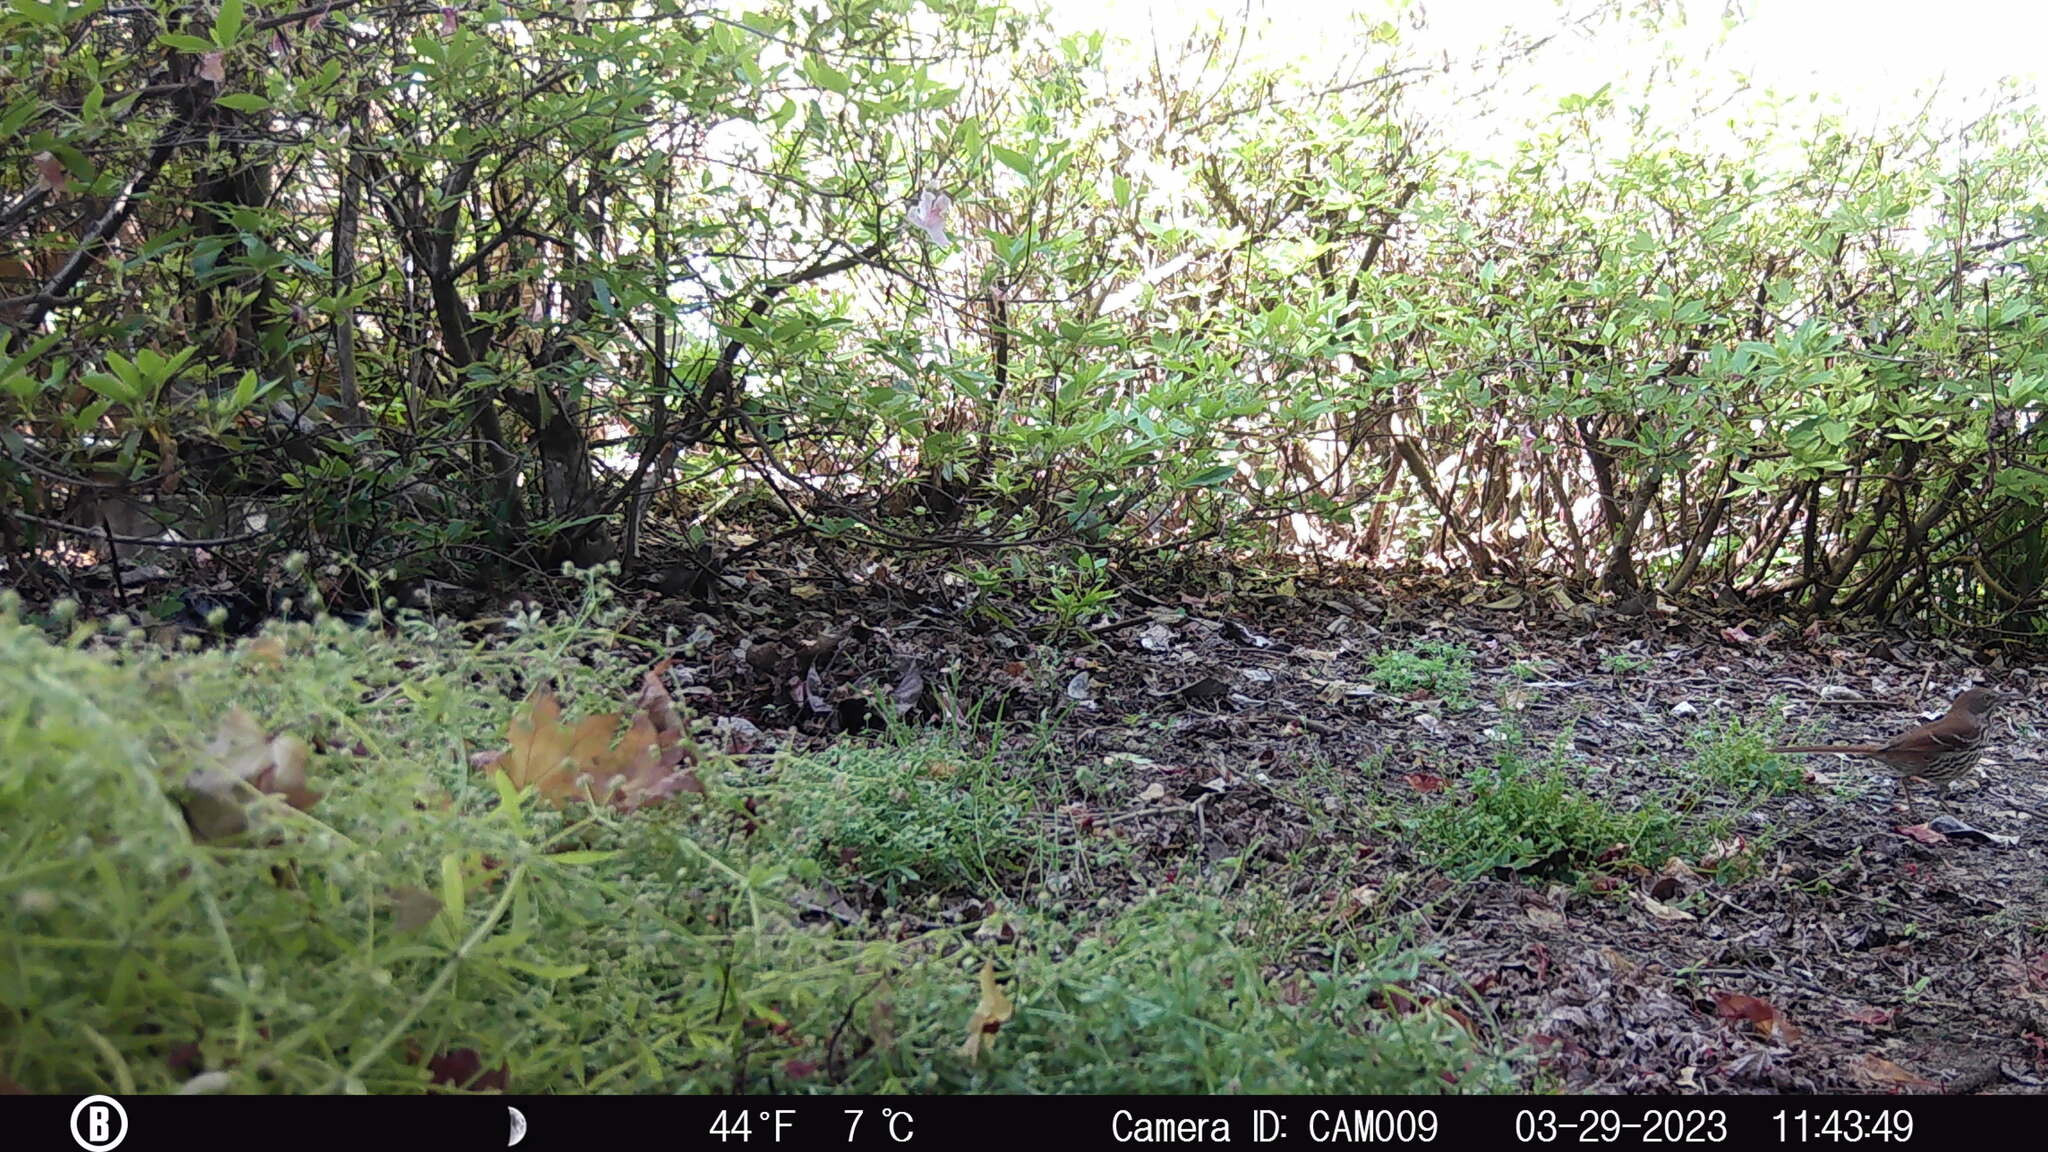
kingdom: Animalia
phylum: Chordata
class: Aves
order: Passeriformes
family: Mimidae
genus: Toxostoma
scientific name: Toxostoma rufum
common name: Brown thrasher
